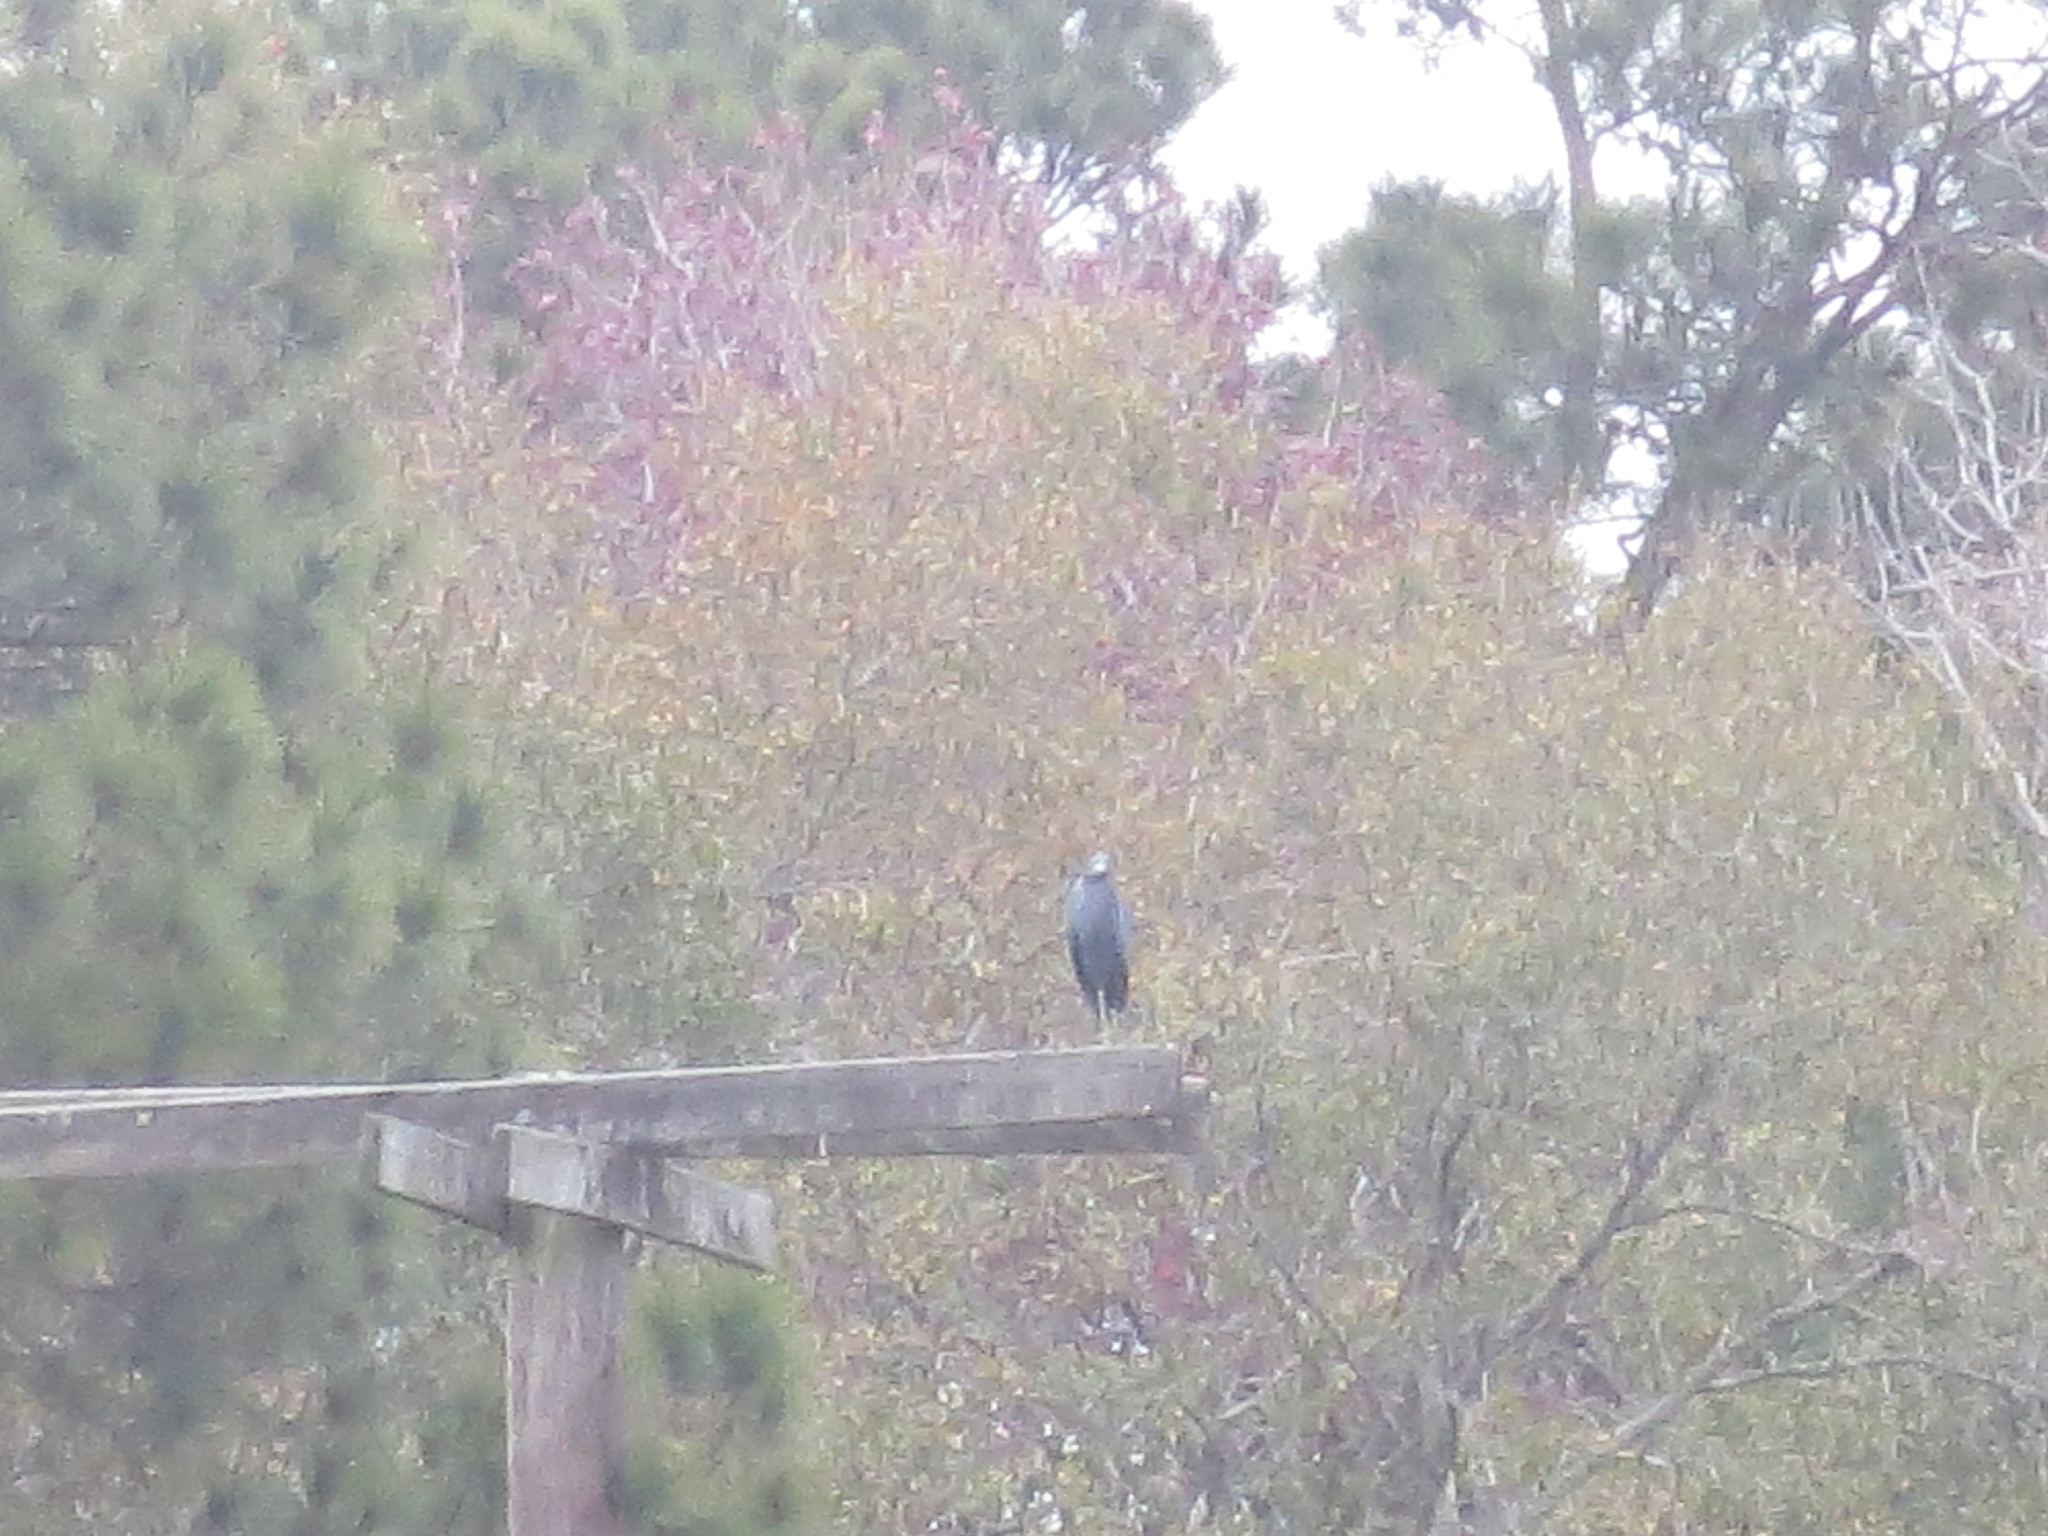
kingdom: Animalia
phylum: Chordata
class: Aves
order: Pelecaniformes
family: Ardeidae
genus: Egretta
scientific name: Egretta caerulea
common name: Little blue heron
